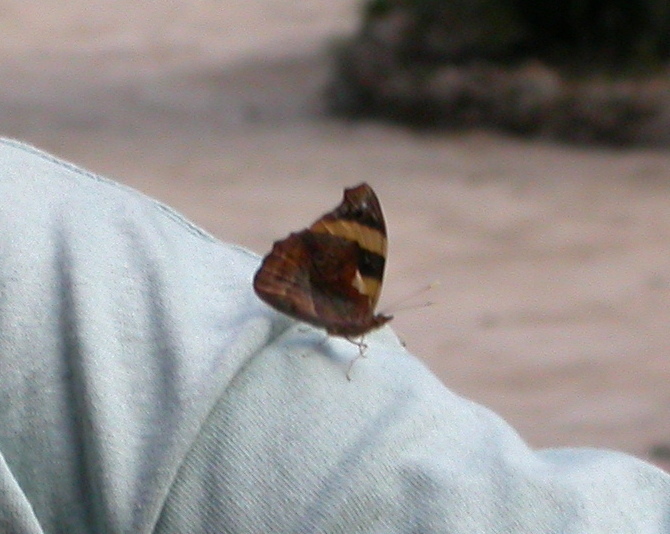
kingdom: Animalia
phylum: Arthropoda
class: Insecta
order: Lepidoptera
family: Nymphalidae
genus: Epiphile
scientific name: Epiphile adrasta
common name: Common banner
